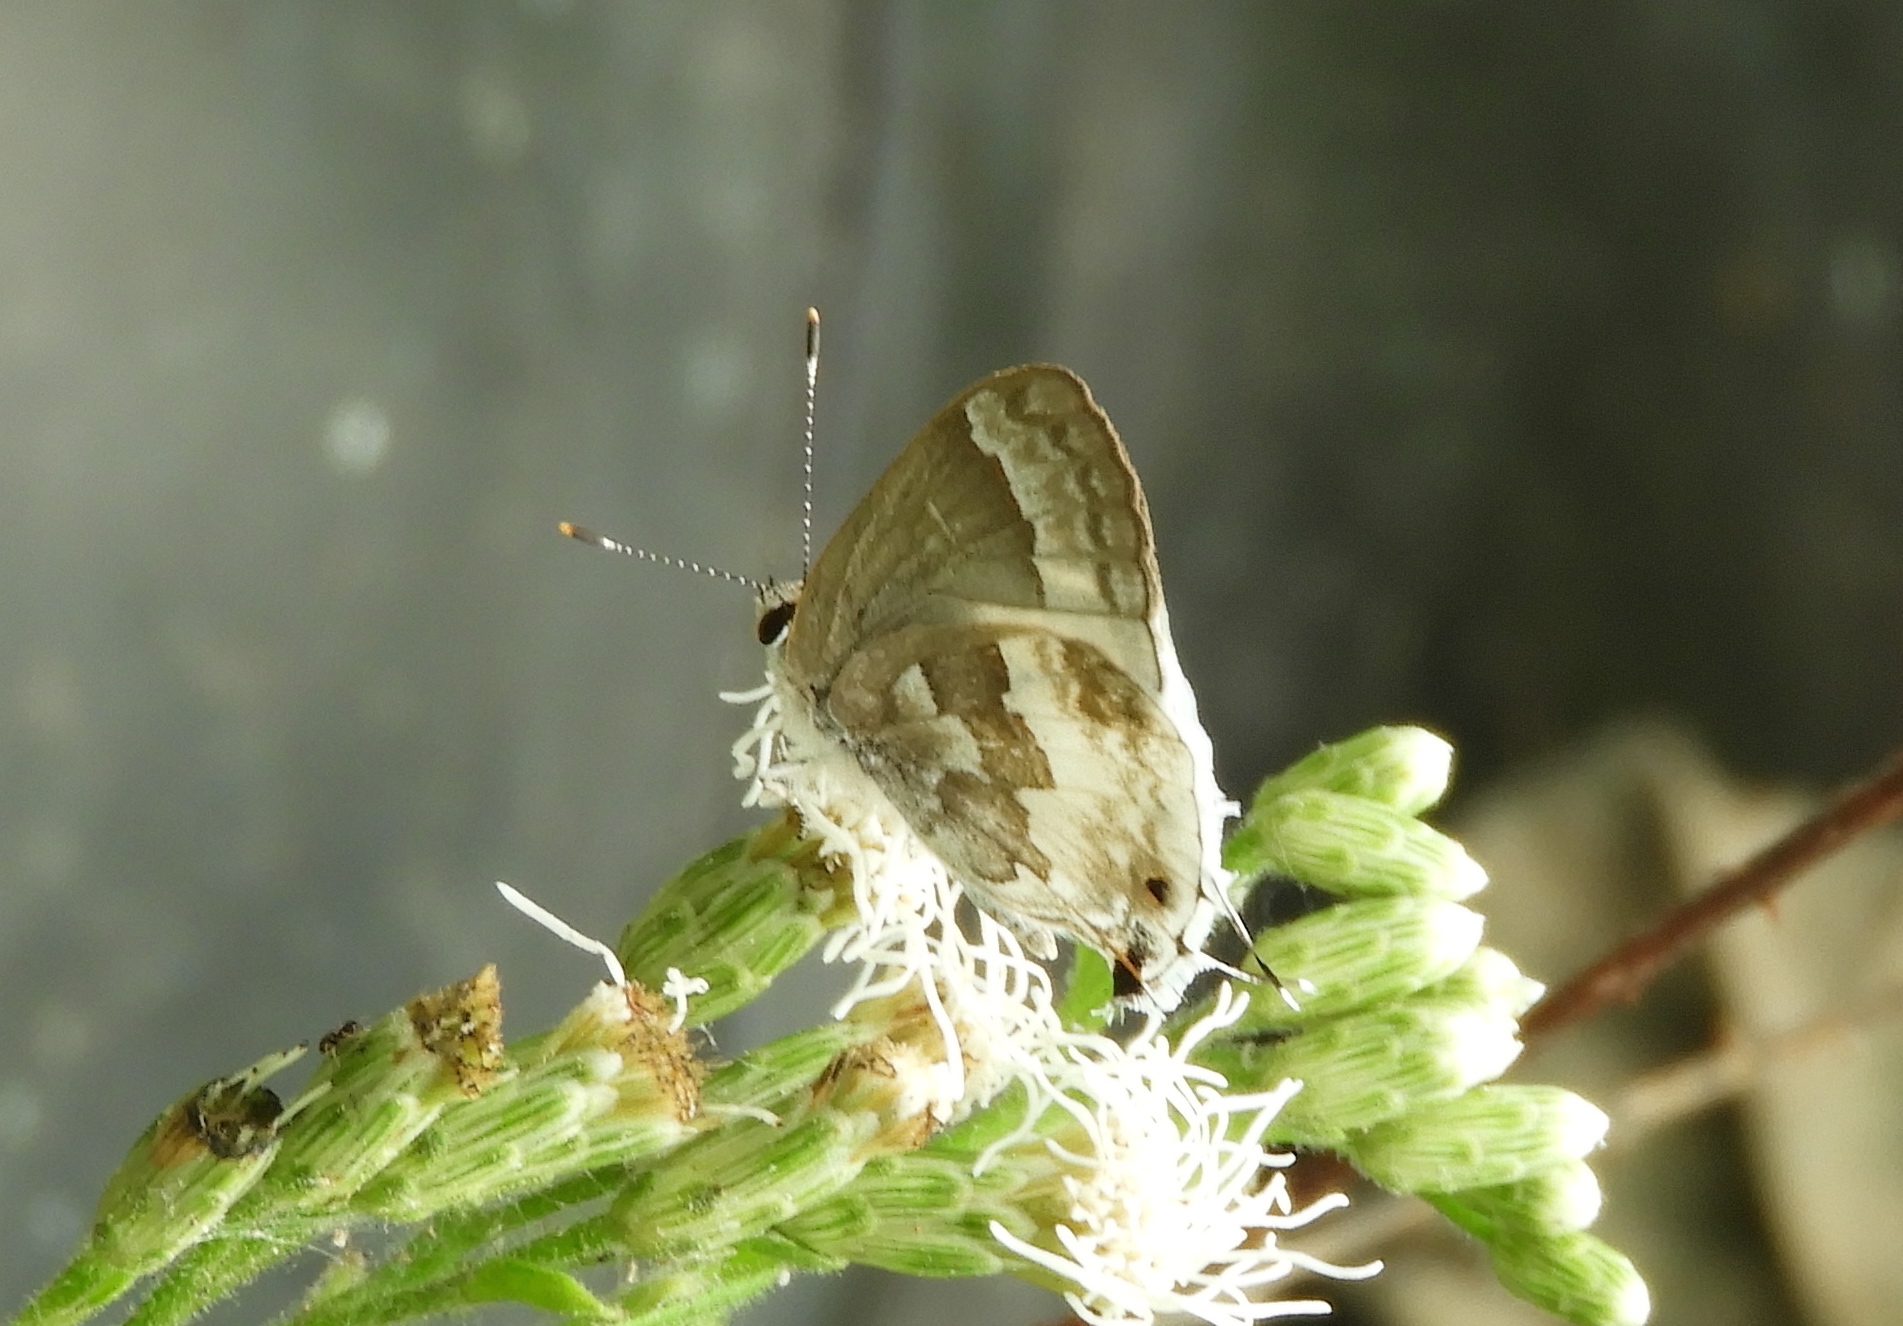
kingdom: Animalia
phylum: Arthropoda
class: Insecta
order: Lepidoptera
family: Lycaenidae
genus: Strymon
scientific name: Strymon albata
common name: White scrub-hairstreak
